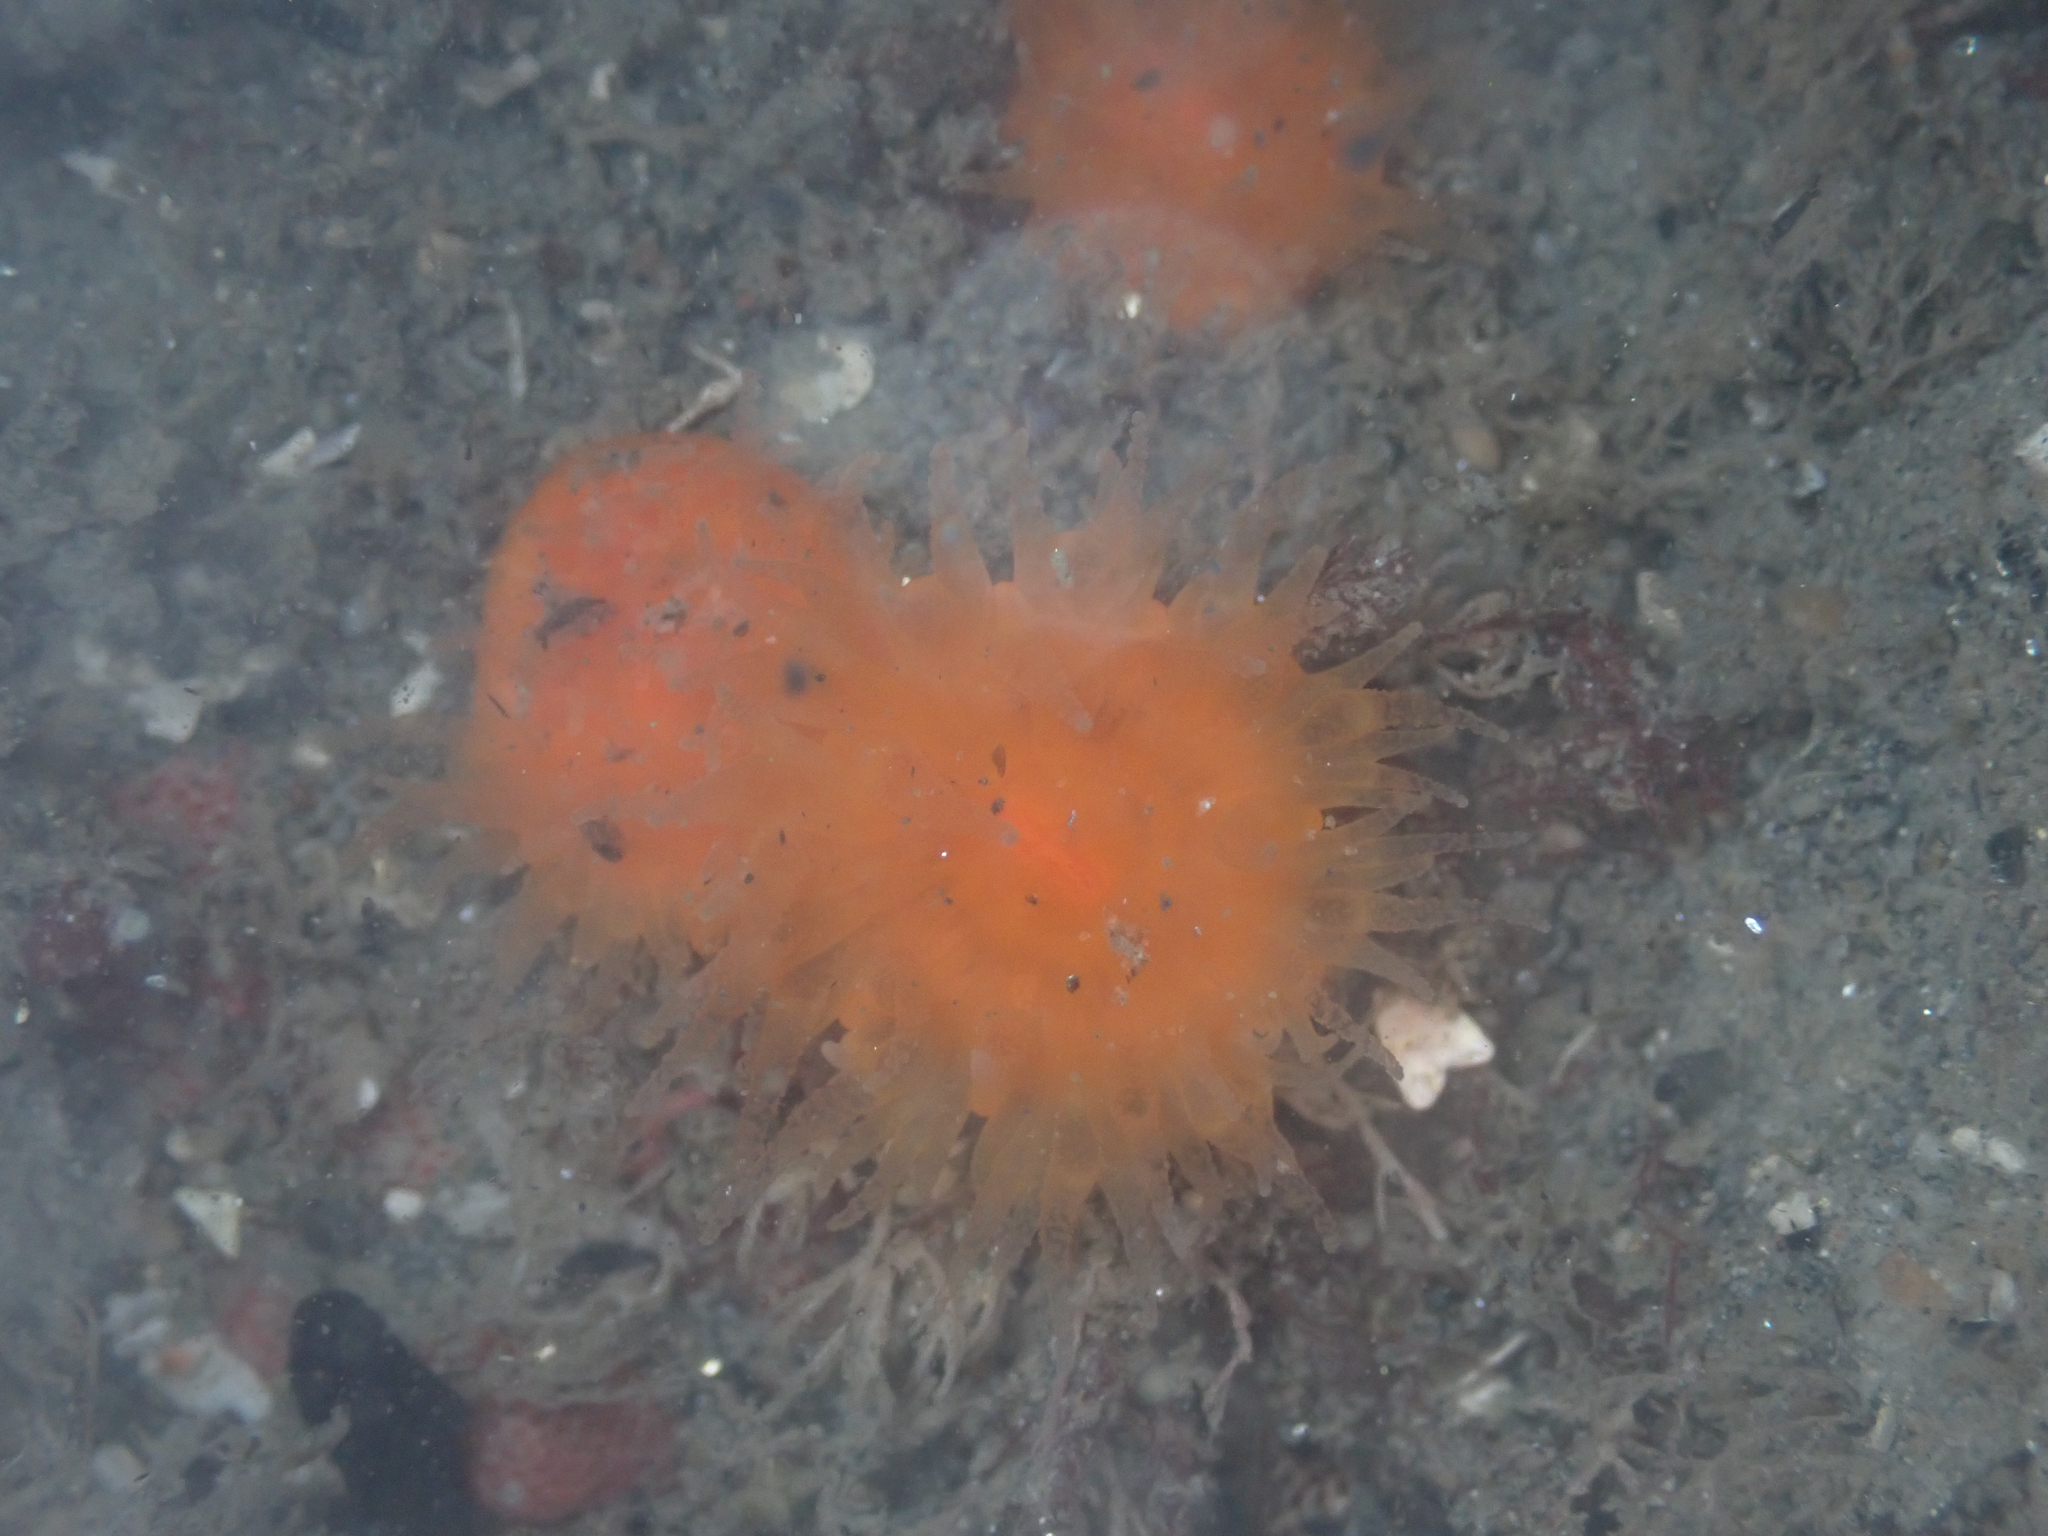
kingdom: Animalia
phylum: Cnidaria
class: Anthozoa
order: Scleractinia
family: Dendrophylliidae
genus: Balanophyllia
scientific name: Balanophyllia elegans
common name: Orange stony coral
